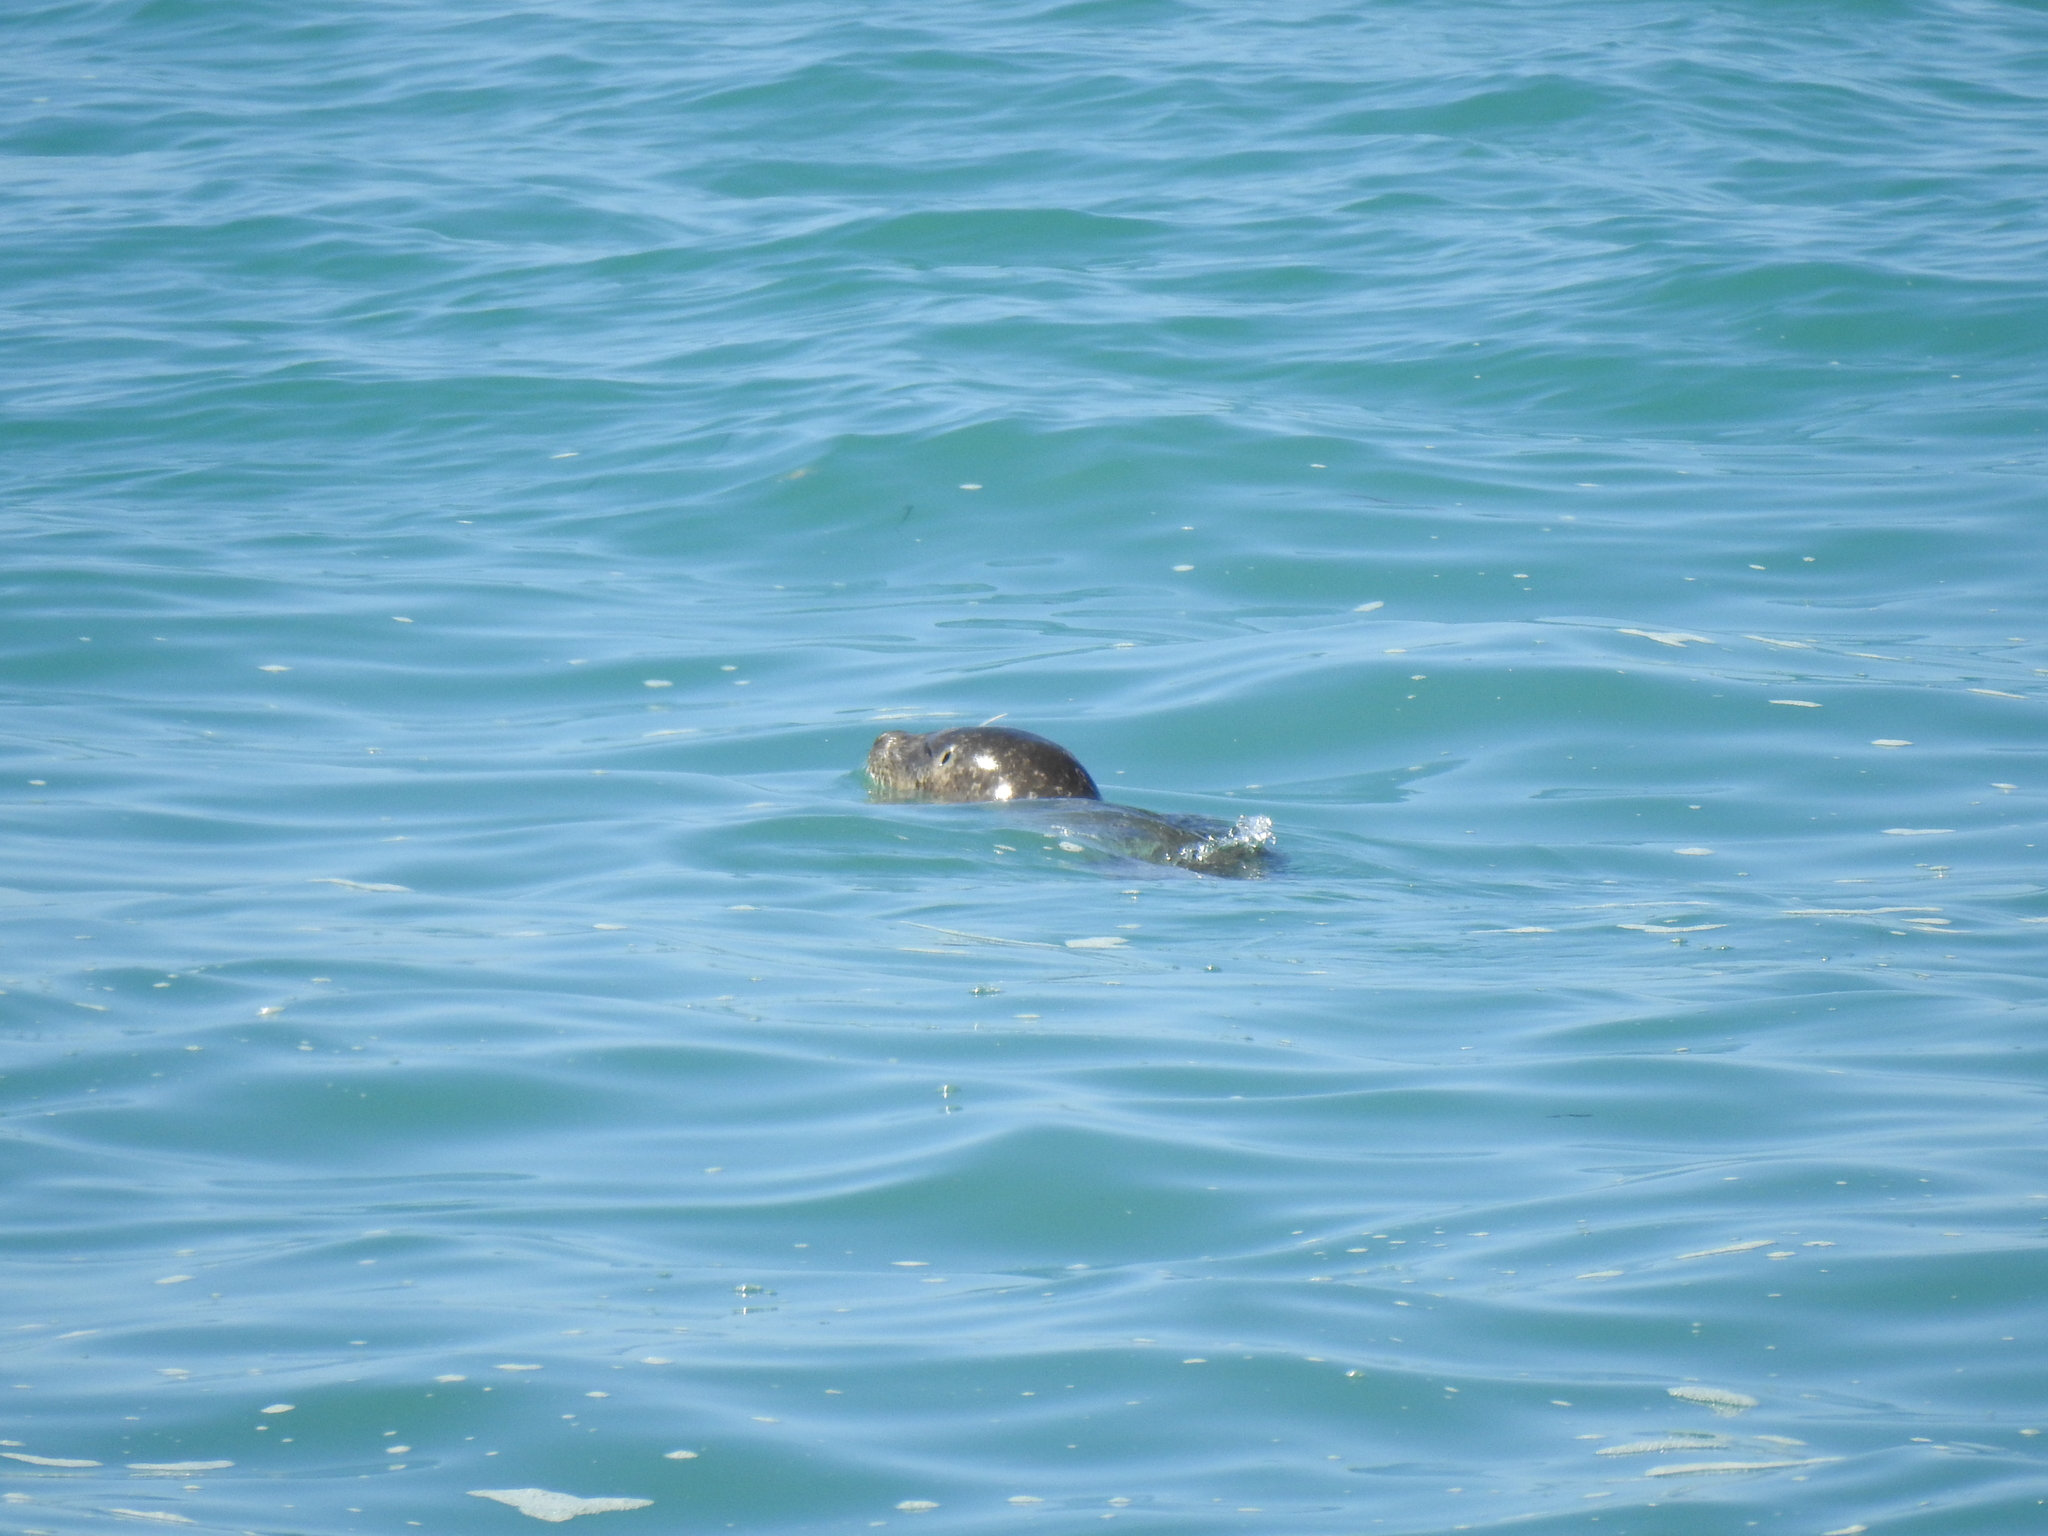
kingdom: Animalia
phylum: Chordata
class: Mammalia
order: Carnivora
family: Phocidae
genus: Phoca
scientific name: Phoca vitulina
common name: Harbor seal
